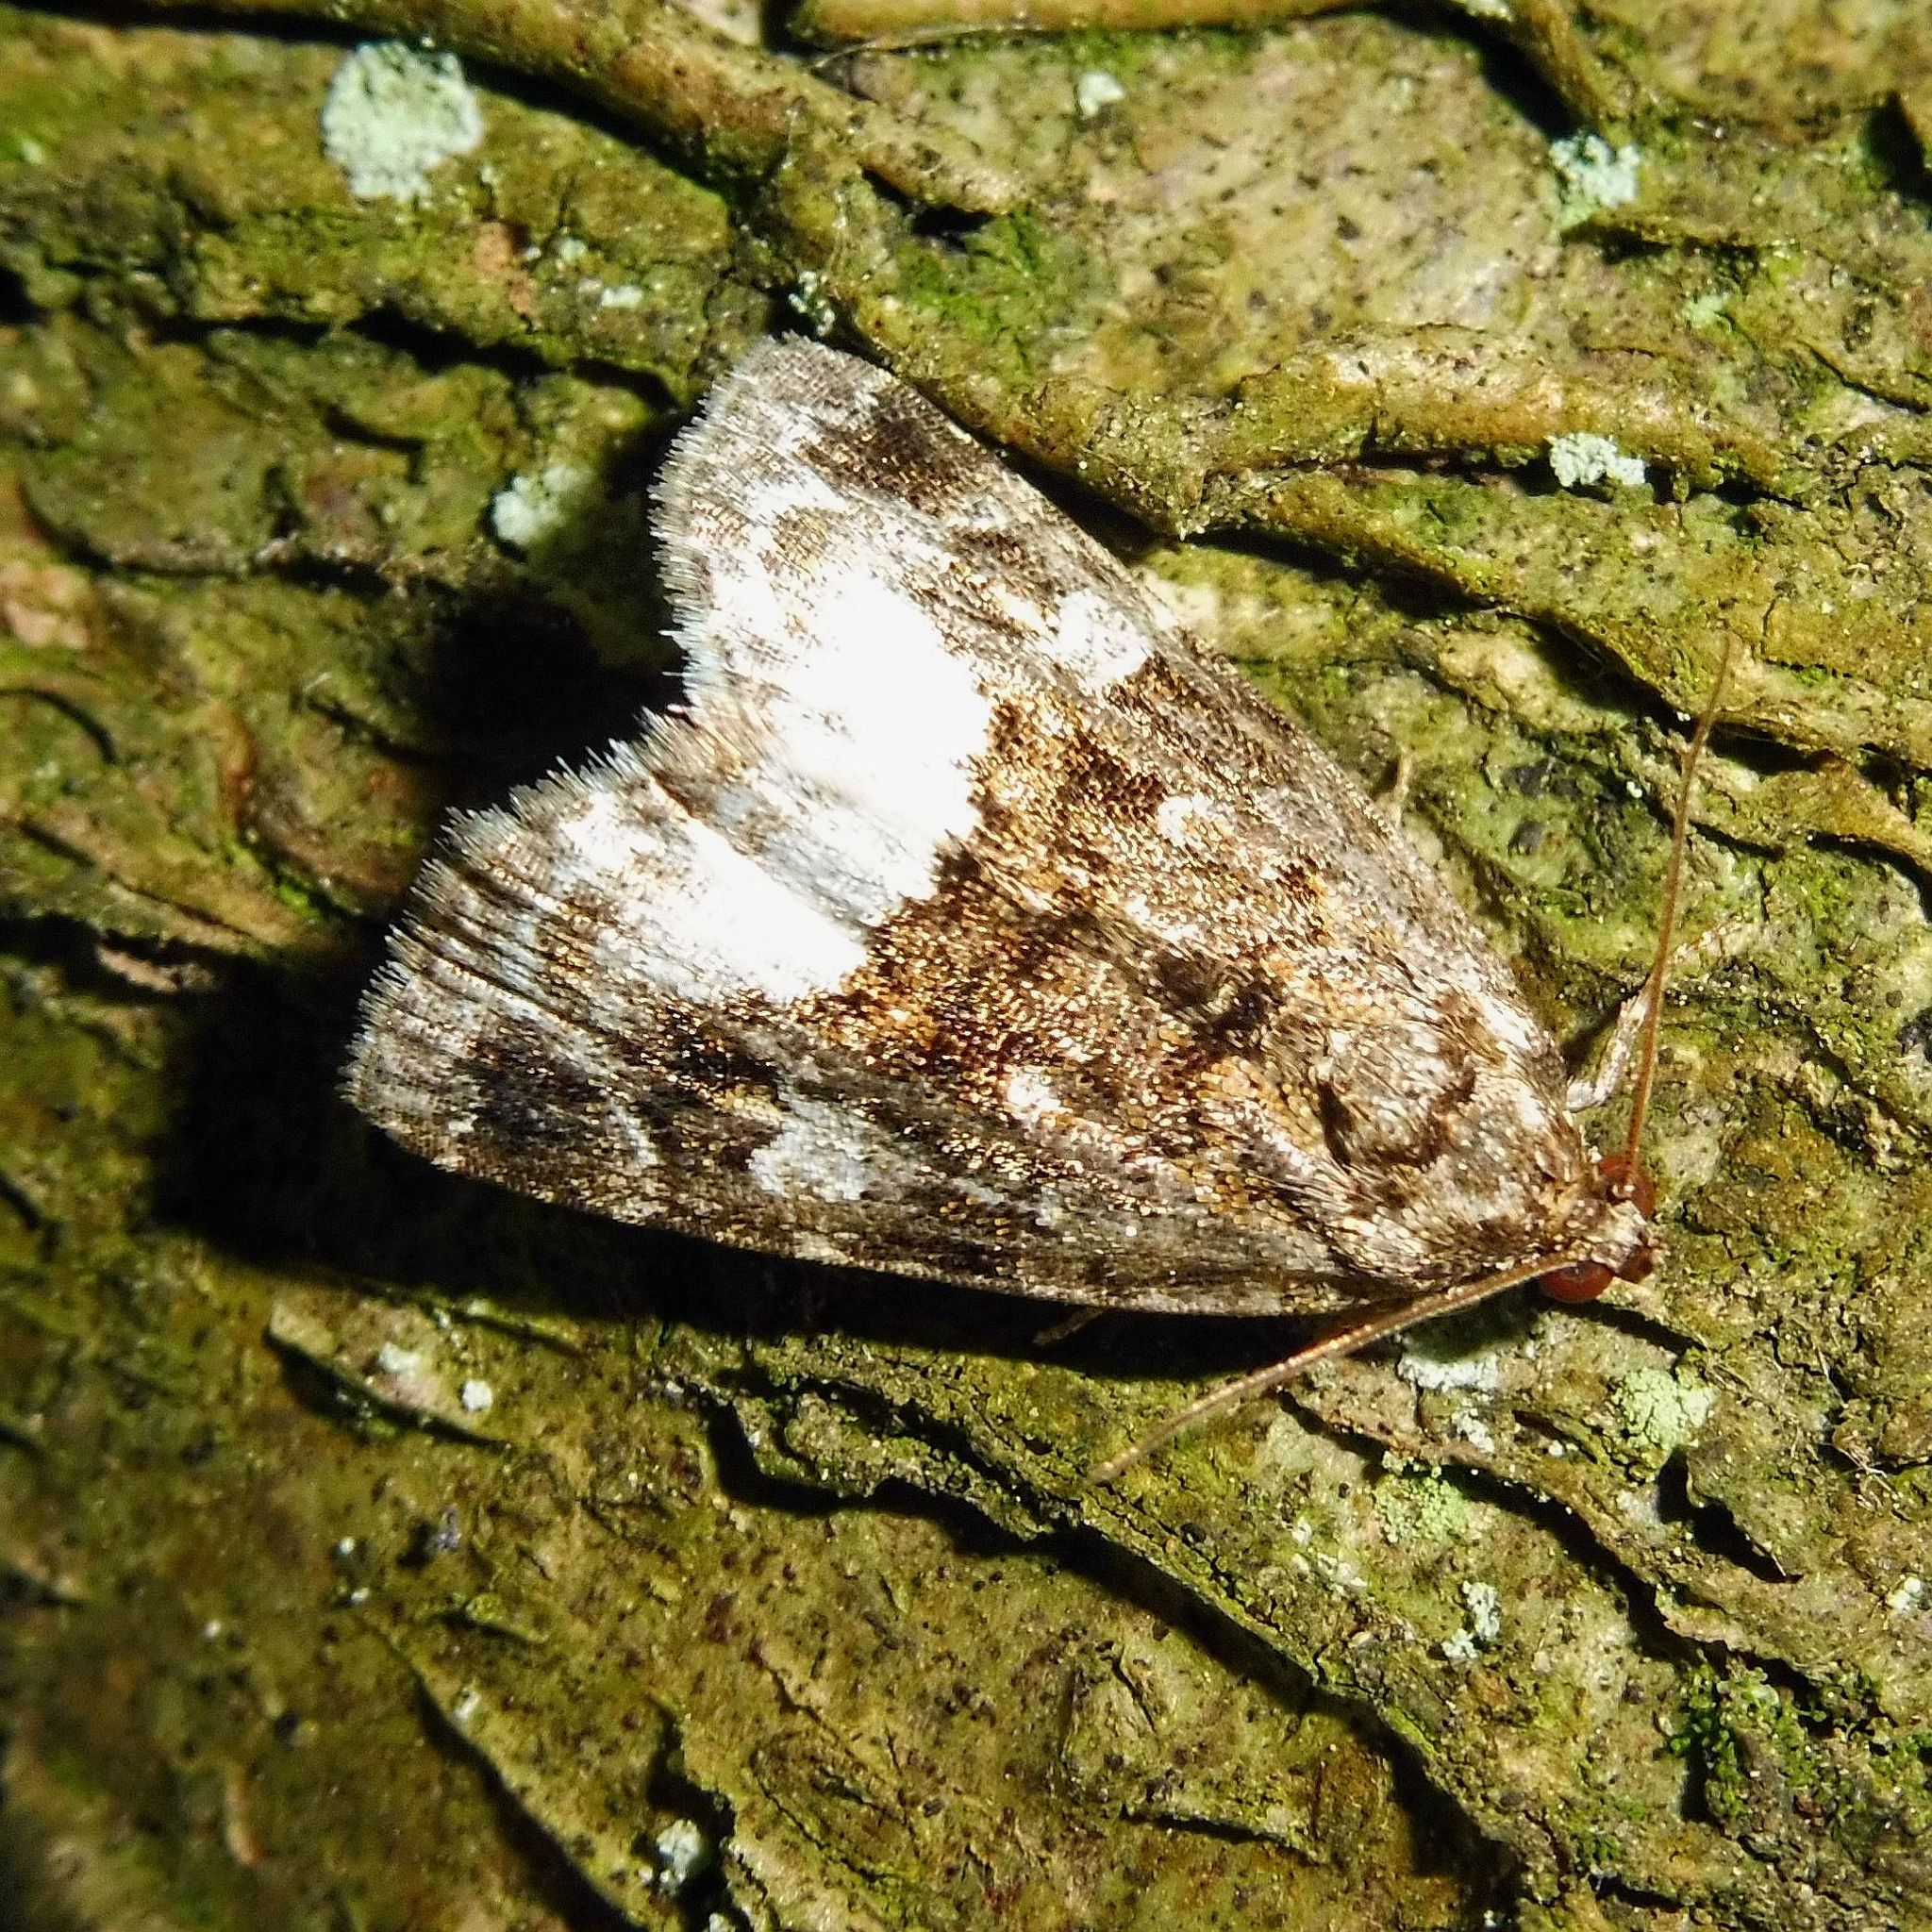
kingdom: Animalia
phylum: Arthropoda
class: Insecta
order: Lepidoptera
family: Noctuidae
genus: Deltote
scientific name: Deltote pygarga
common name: Marbled white spot
